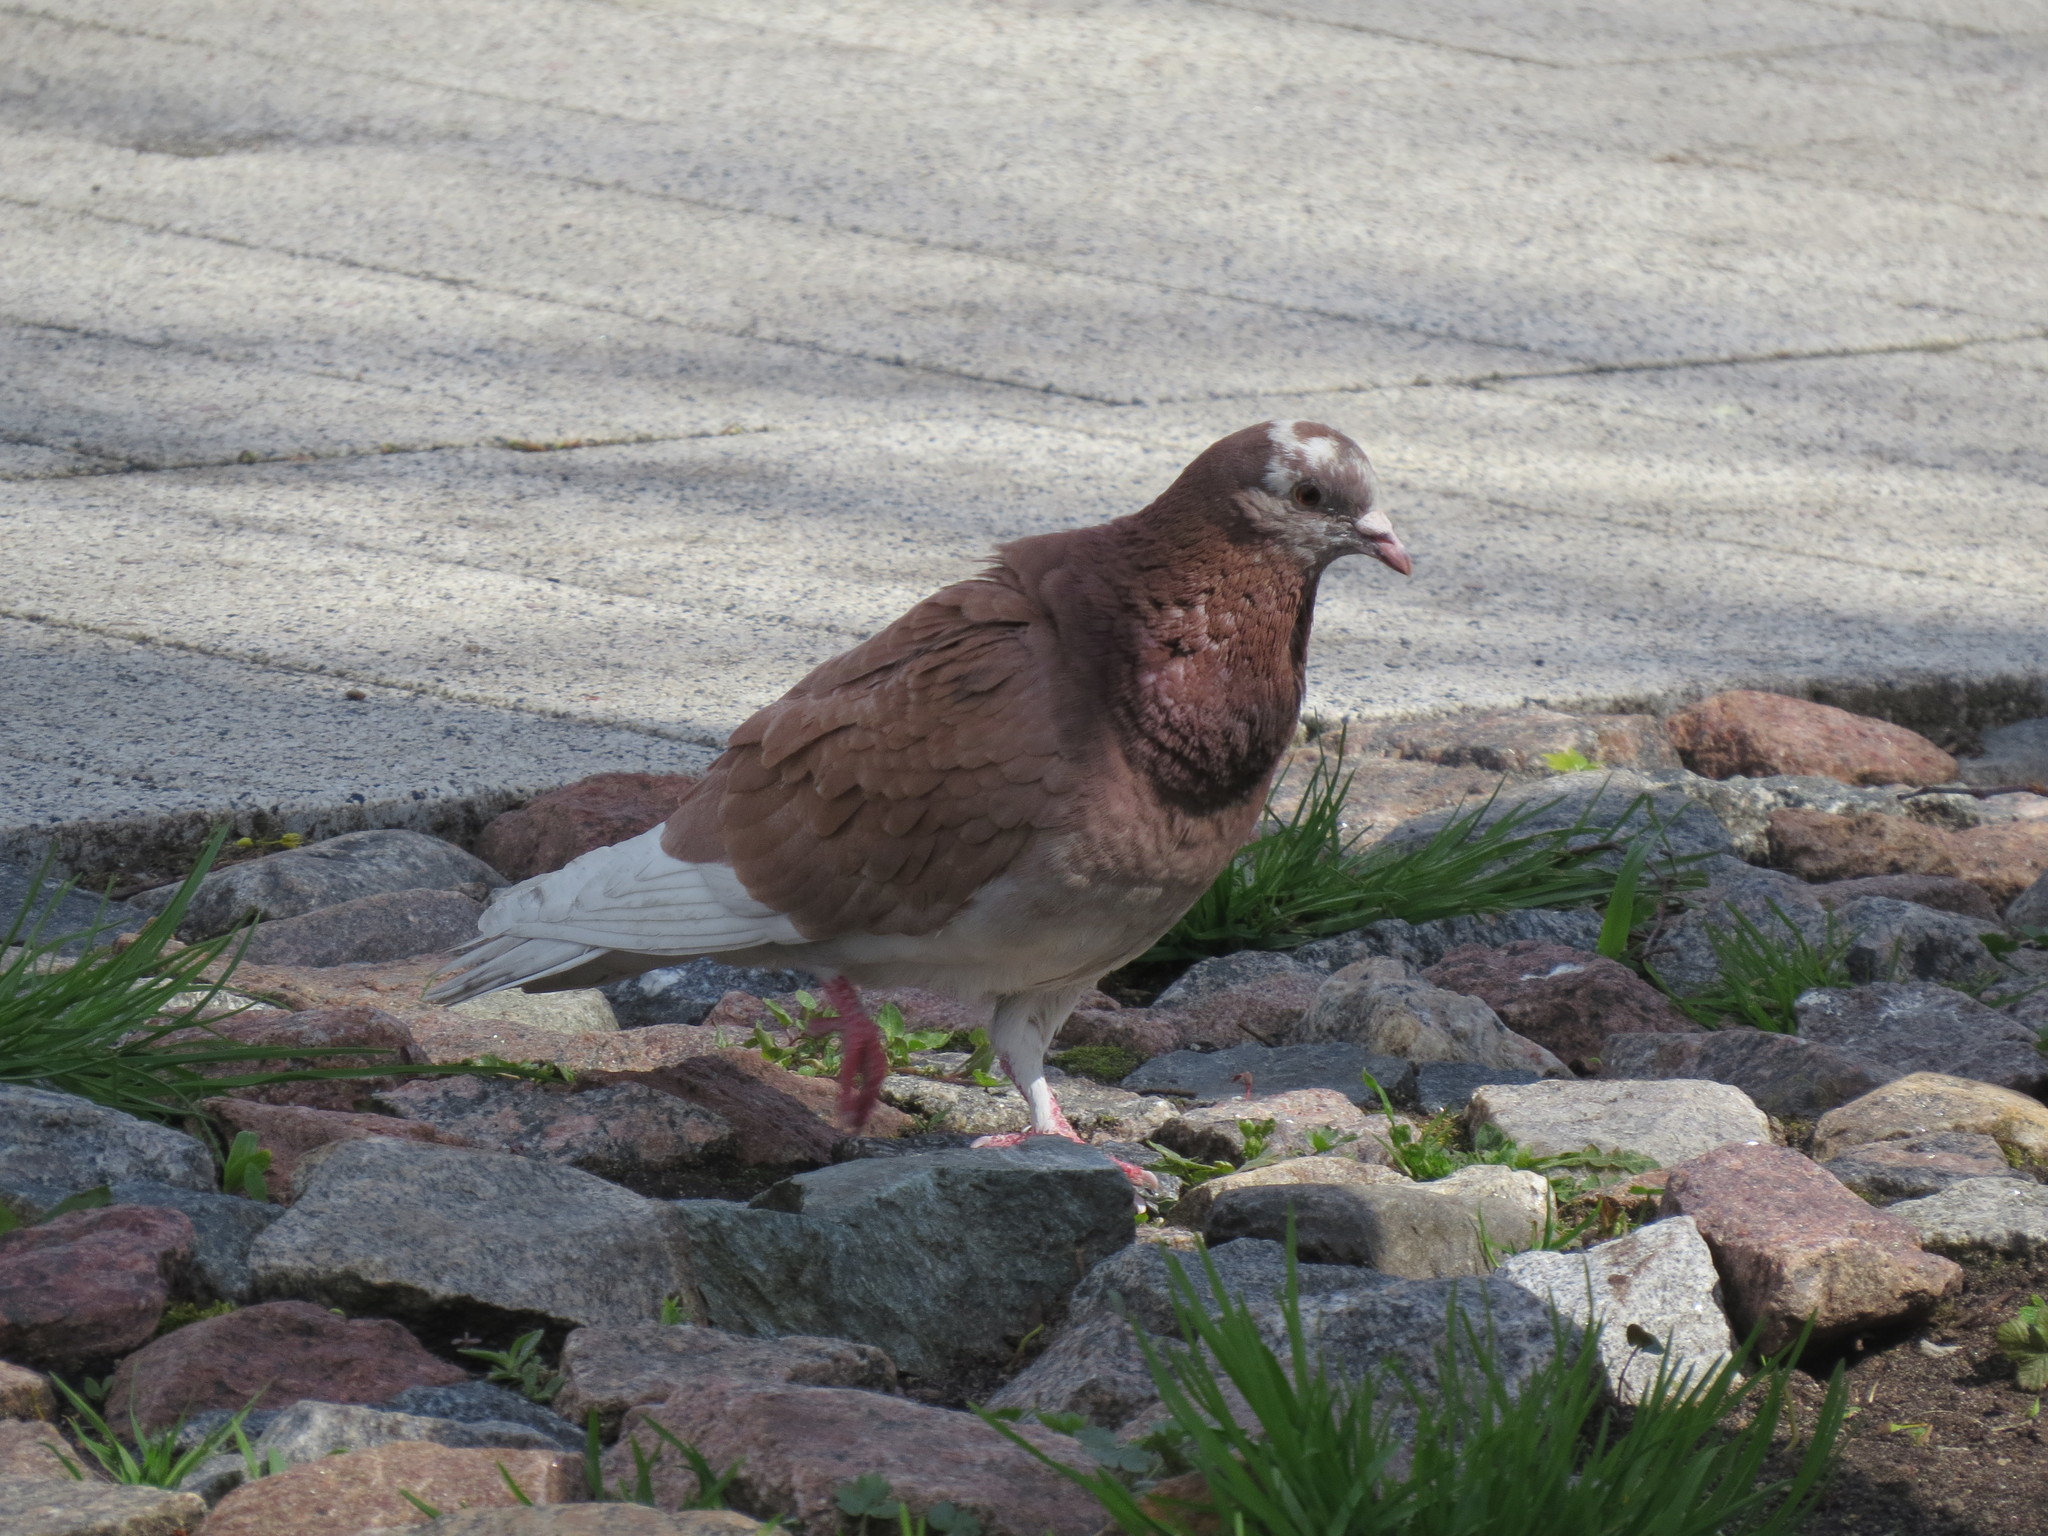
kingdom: Animalia
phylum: Chordata
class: Aves
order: Columbiformes
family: Columbidae
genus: Columba
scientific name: Columba livia
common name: Rock pigeon
